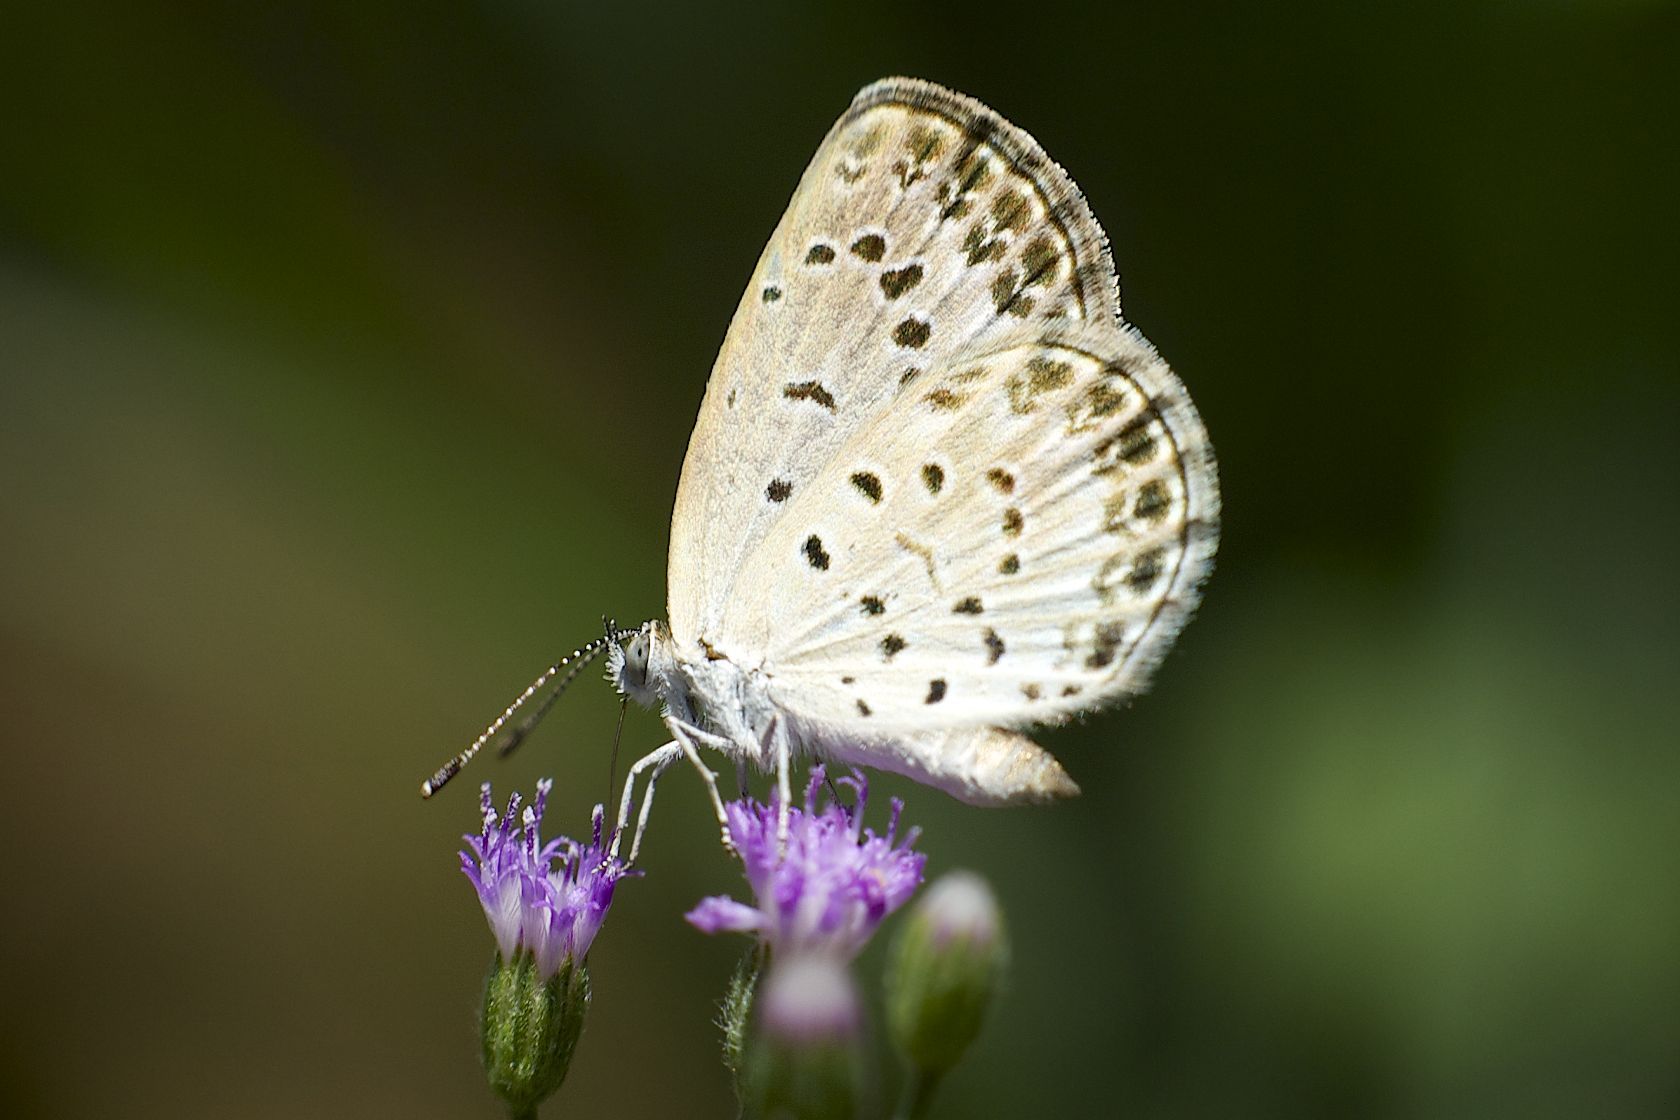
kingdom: Animalia
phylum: Arthropoda
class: Insecta
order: Lepidoptera
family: Lycaenidae
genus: Pseudozizeeria
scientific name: Pseudozizeeria maha
